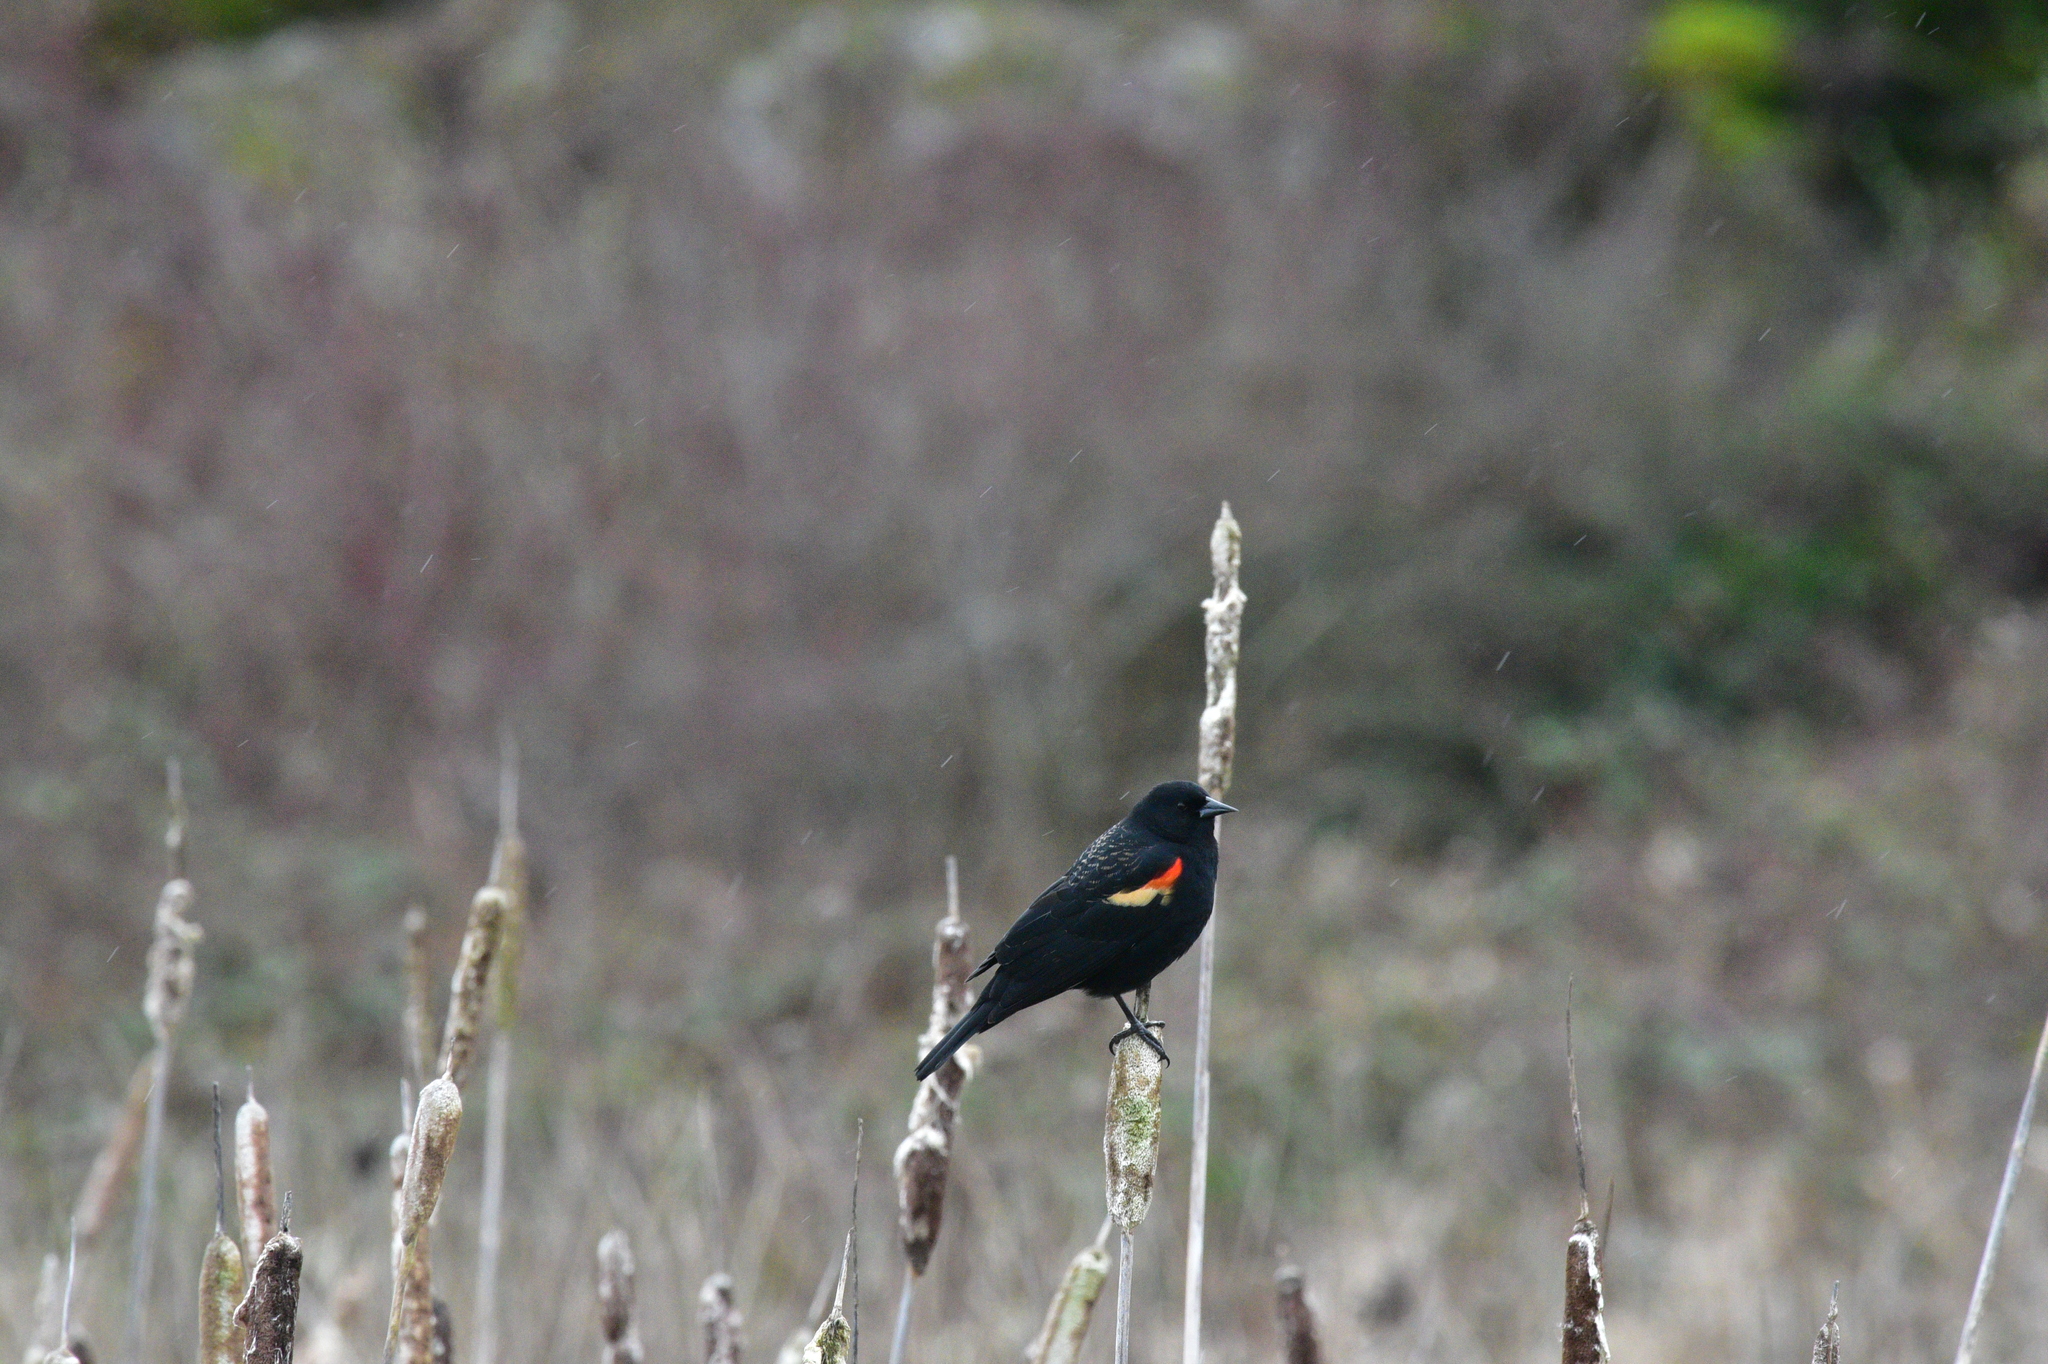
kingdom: Animalia
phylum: Chordata
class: Aves
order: Passeriformes
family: Icteridae
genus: Agelaius
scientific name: Agelaius phoeniceus
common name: Red-winged blackbird
